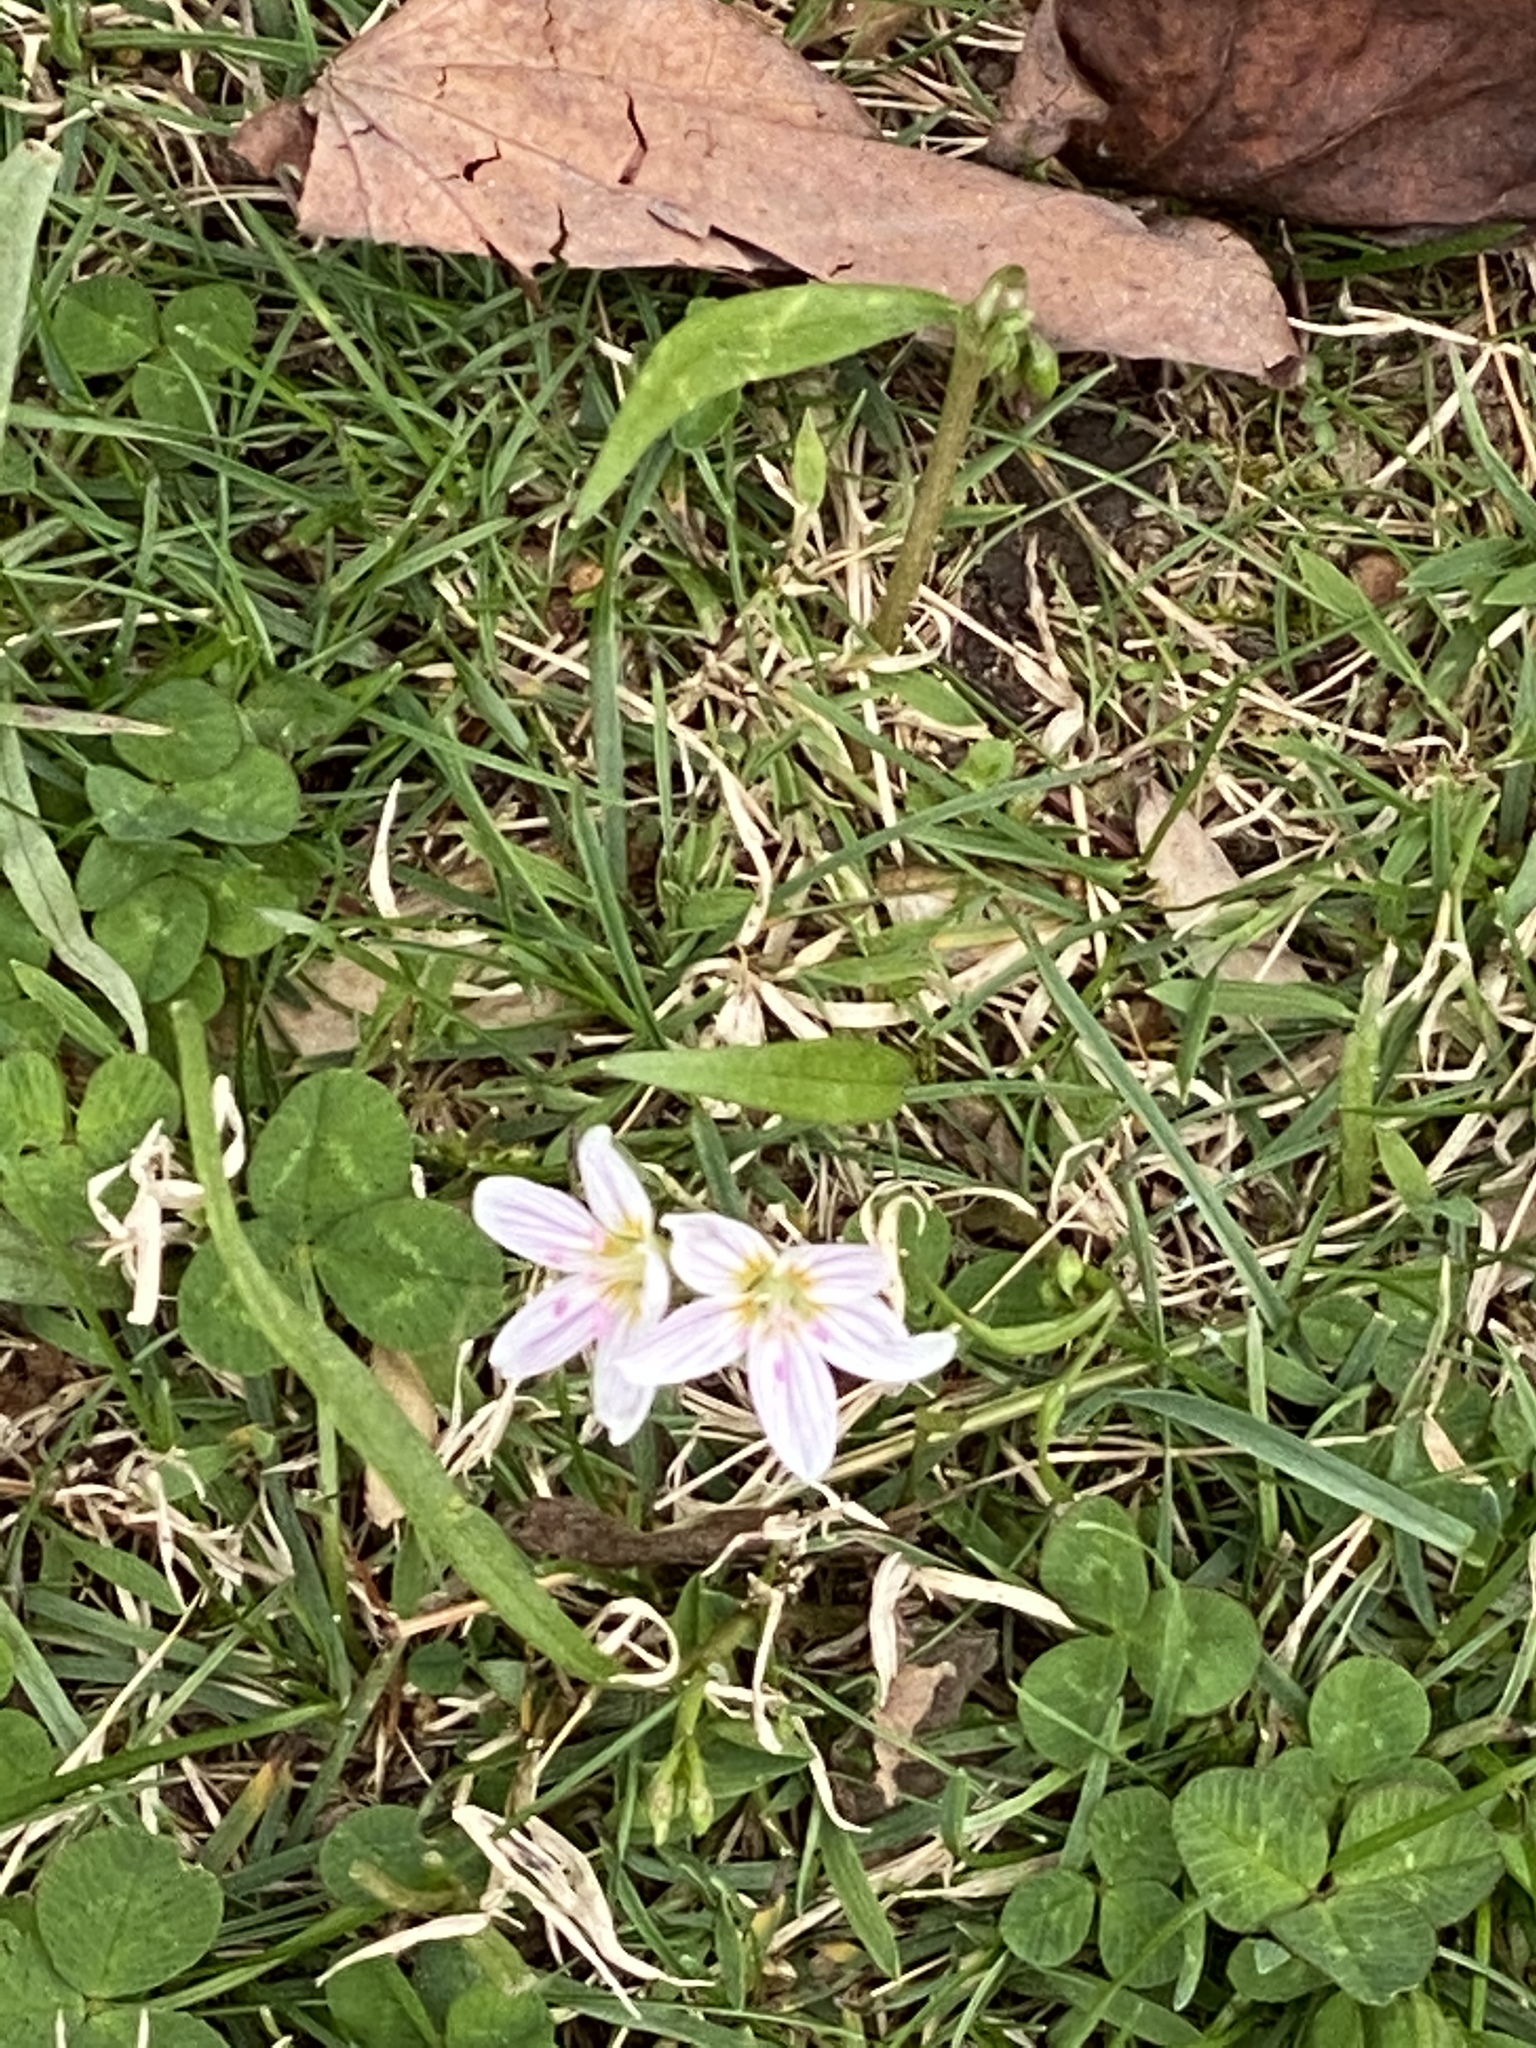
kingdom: Plantae
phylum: Tracheophyta
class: Magnoliopsida
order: Caryophyllales
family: Montiaceae
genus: Claytonia
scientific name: Claytonia virginica
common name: Virginia springbeauty
